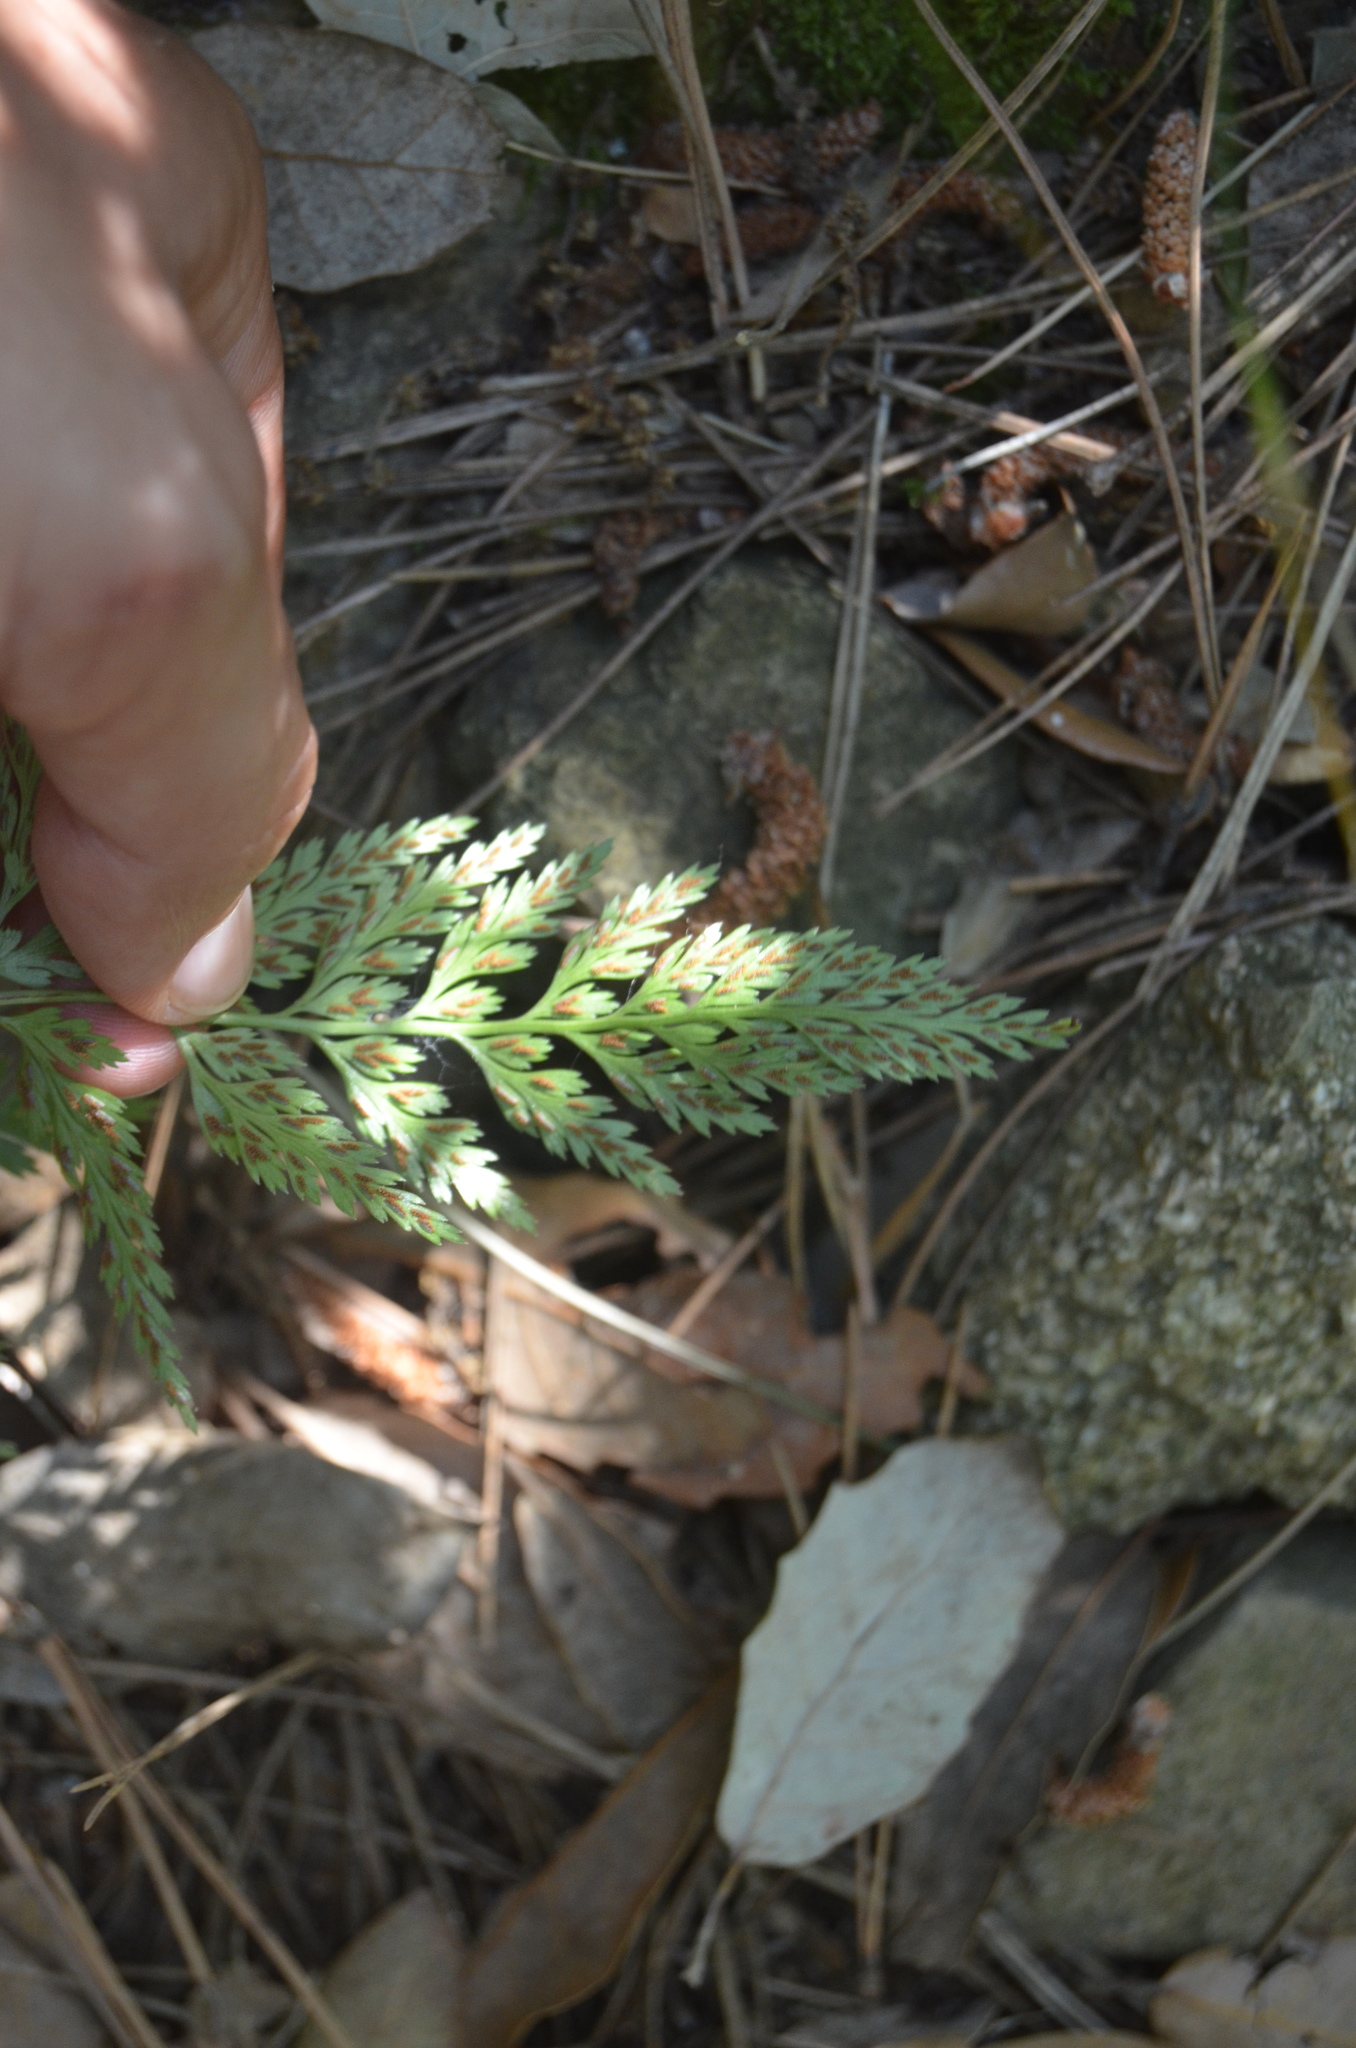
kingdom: Plantae
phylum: Tracheophyta
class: Polypodiopsida
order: Polypodiales
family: Aspleniaceae
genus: Asplenium
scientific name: Asplenium onopteris
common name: Irish spleenwort
